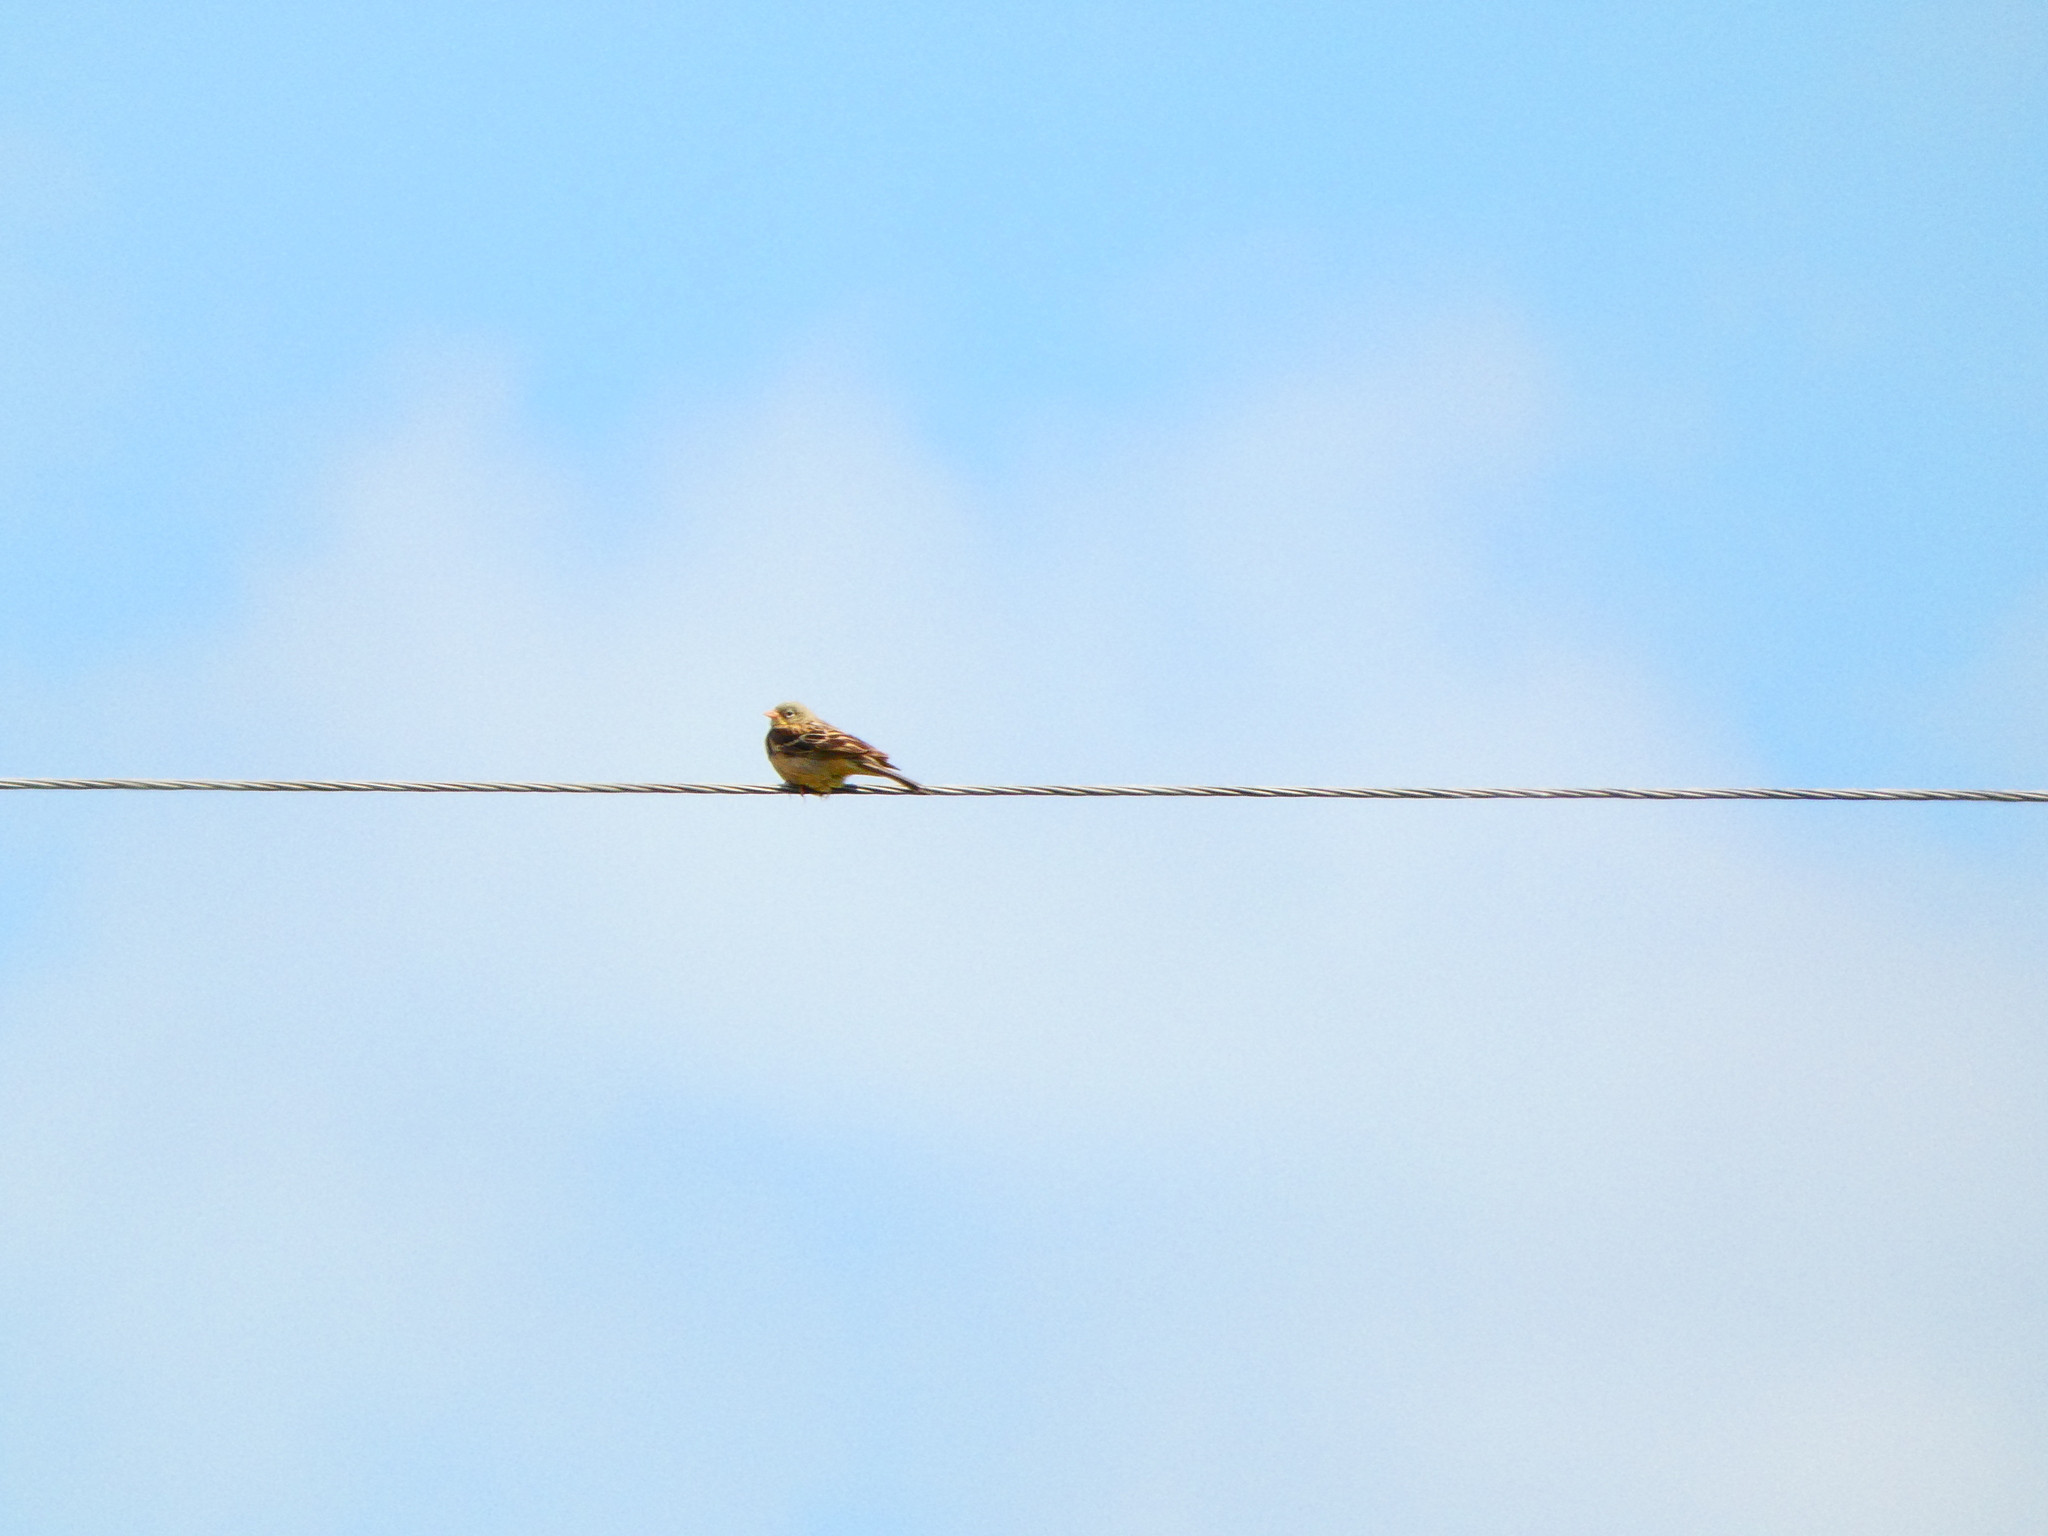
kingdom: Animalia
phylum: Chordata
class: Aves
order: Passeriformes
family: Emberizidae
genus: Emberiza
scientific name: Emberiza hortulana
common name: Ortolan bunting
